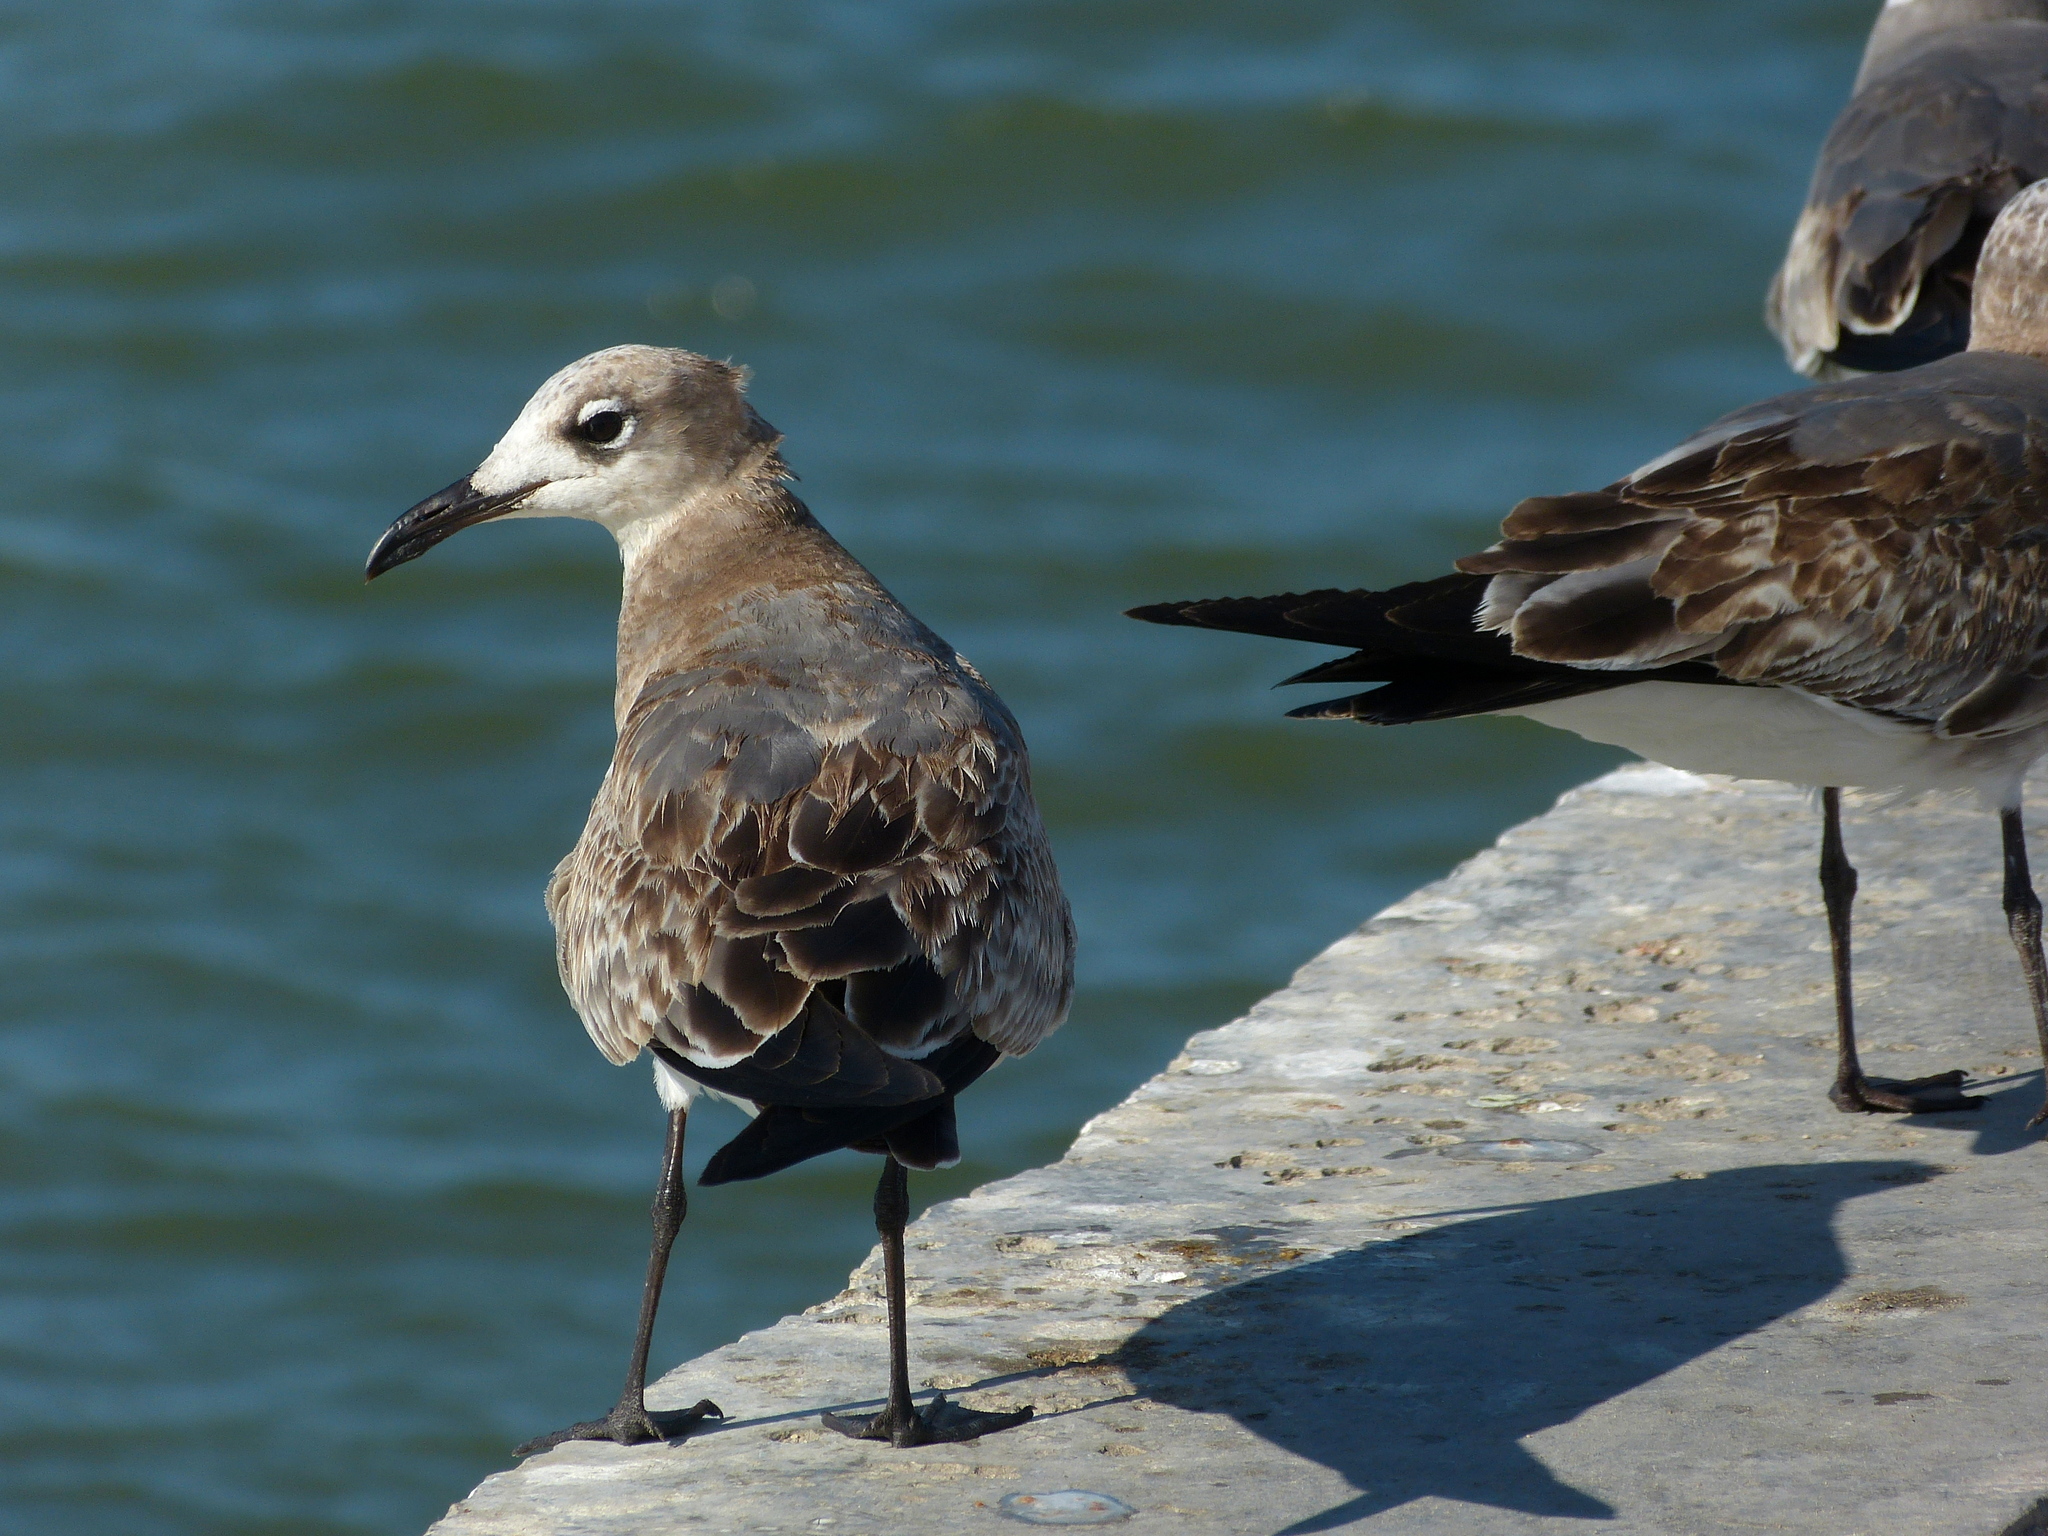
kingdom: Animalia
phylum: Chordata
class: Aves
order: Charadriiformes
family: Laridae
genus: Leucophaeus
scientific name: Leucophaeus atricilla
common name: Laughing gull
